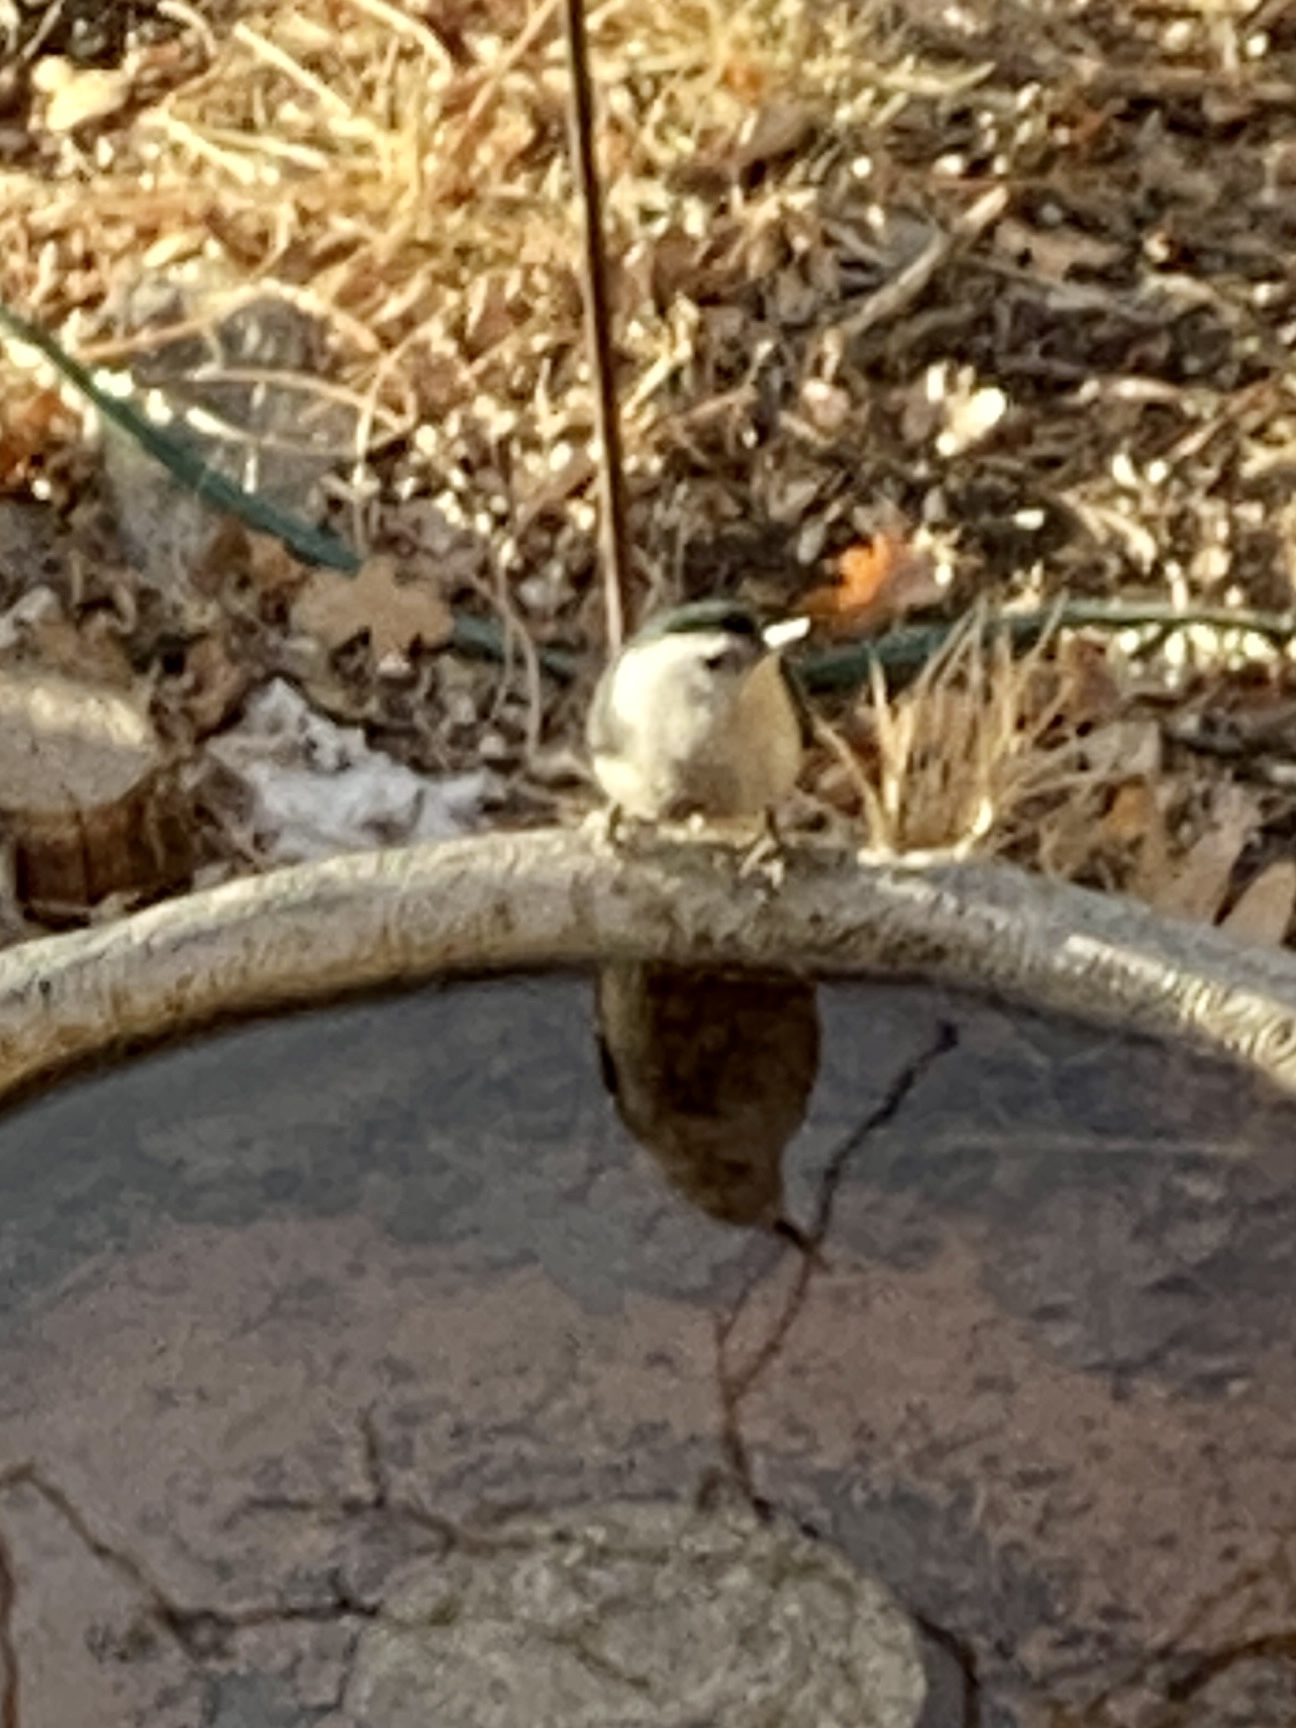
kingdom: Animalia
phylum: Chordata
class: Aves
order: Passeriformes
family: Sittidae
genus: Sitta
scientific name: Sitta carolinensis
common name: White-breasted nuthatch
